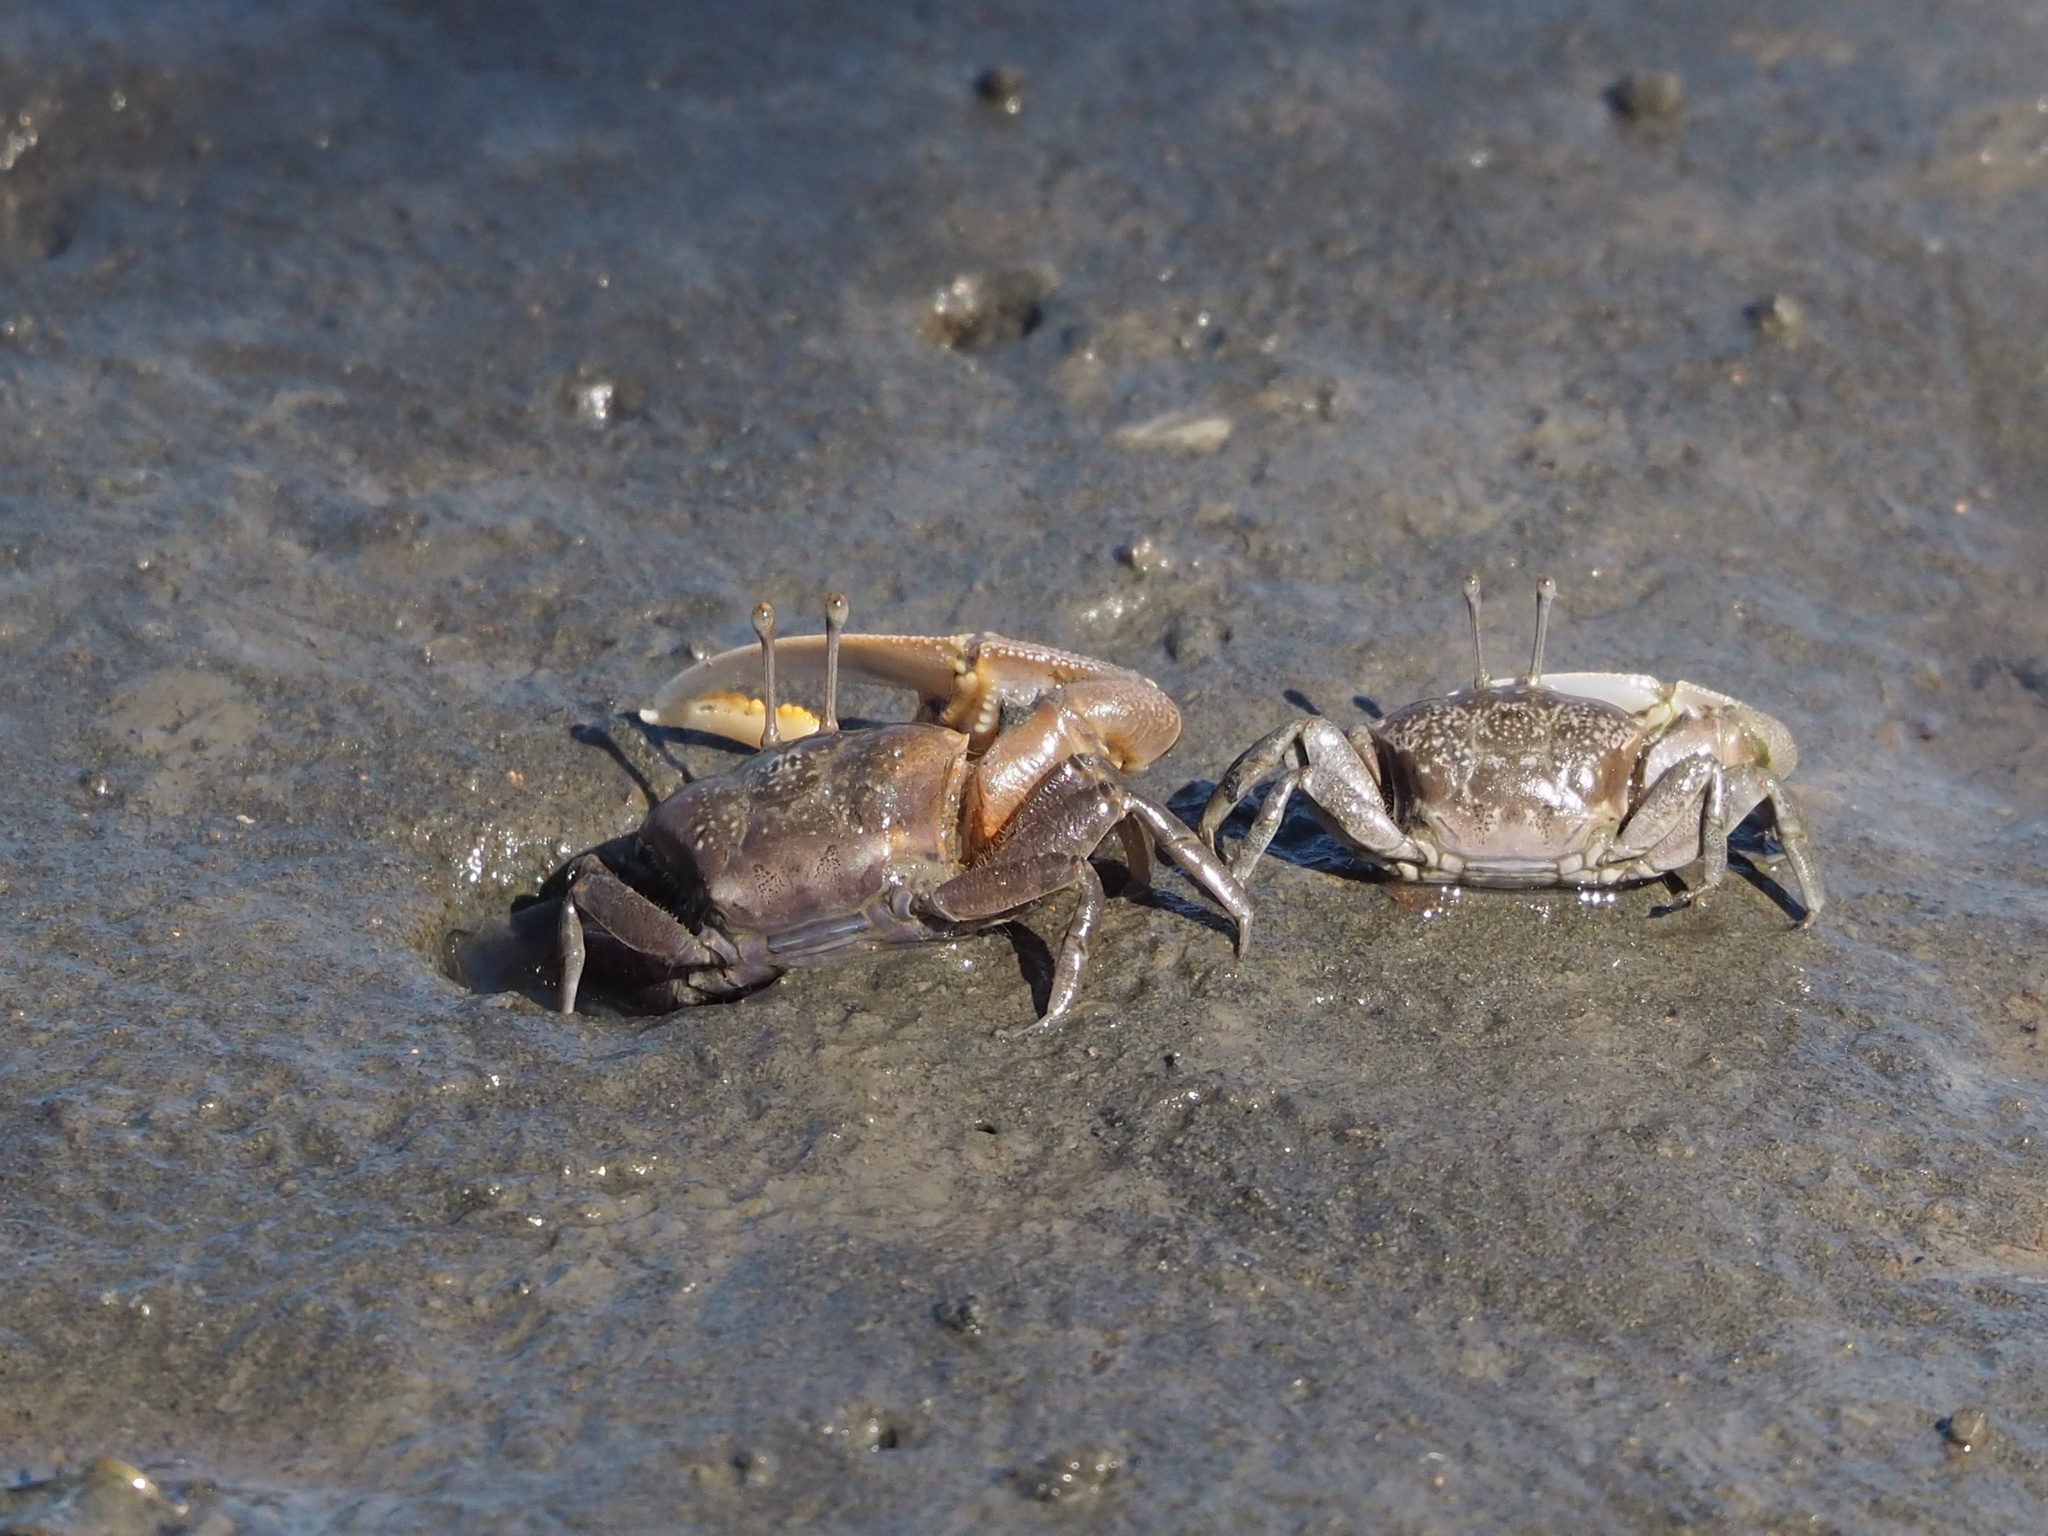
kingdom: Animalia
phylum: Arthropoda
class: Malacostraca
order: Decapoda
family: Ocypodidae
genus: Gelasimus
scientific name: Gelasimus borealis
